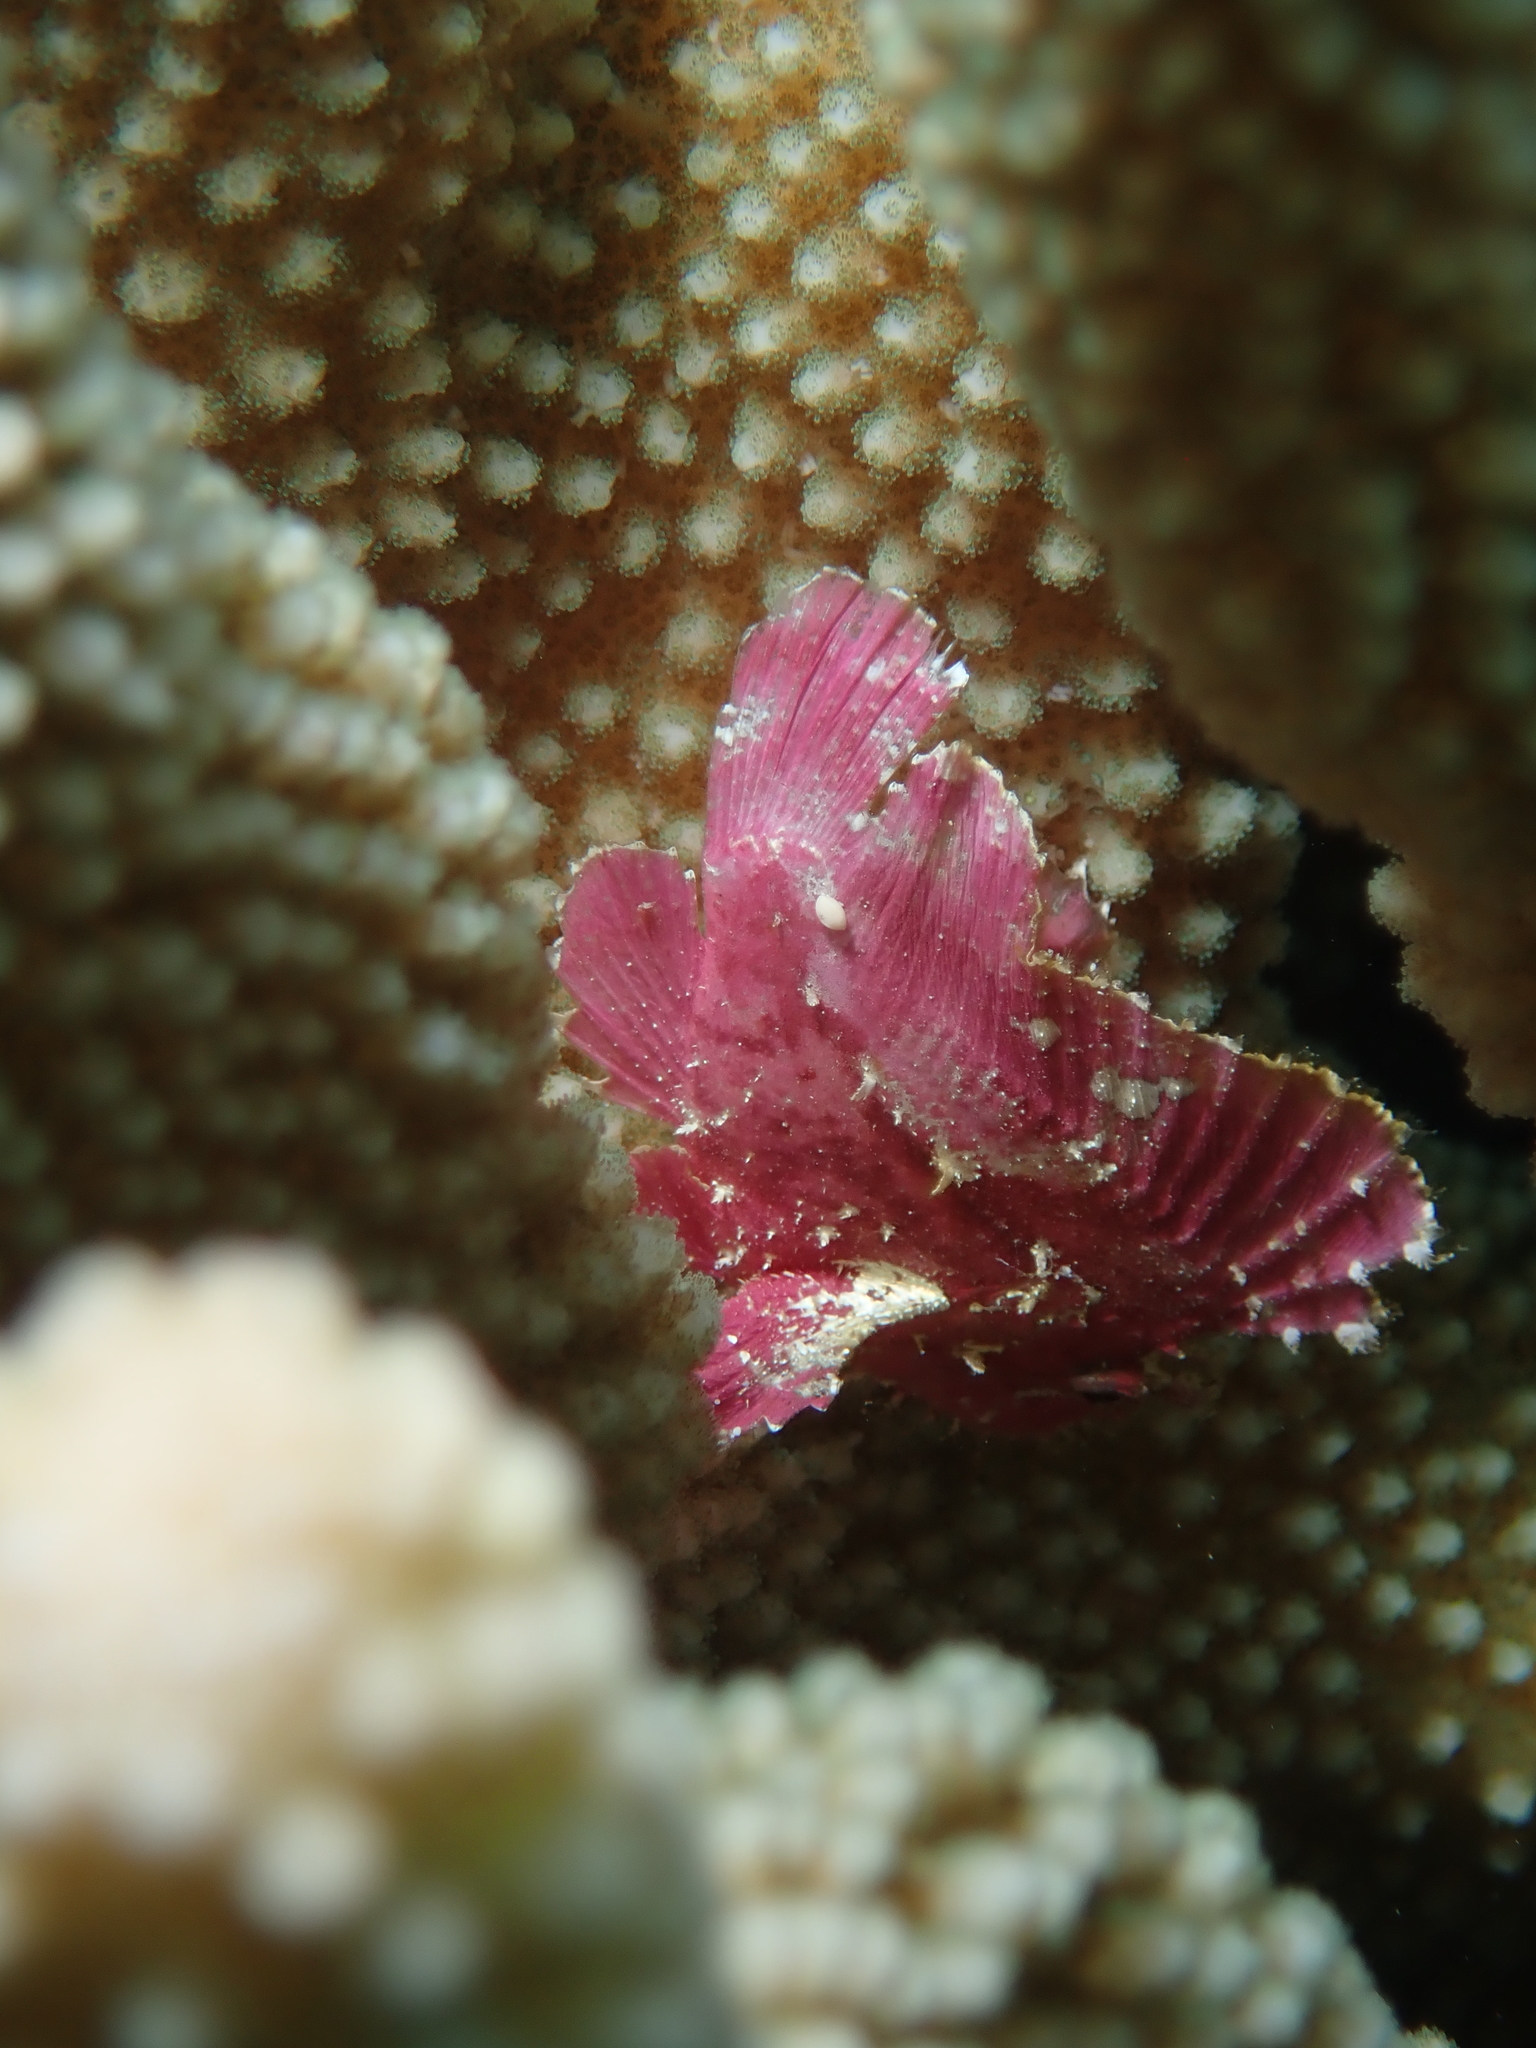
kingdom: Animalia
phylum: Chordata
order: Scorpaeniformes
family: Scorpaenidae
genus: Taenianotus
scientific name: Taenianotus triacanthus
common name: Leaf scorpionfish
